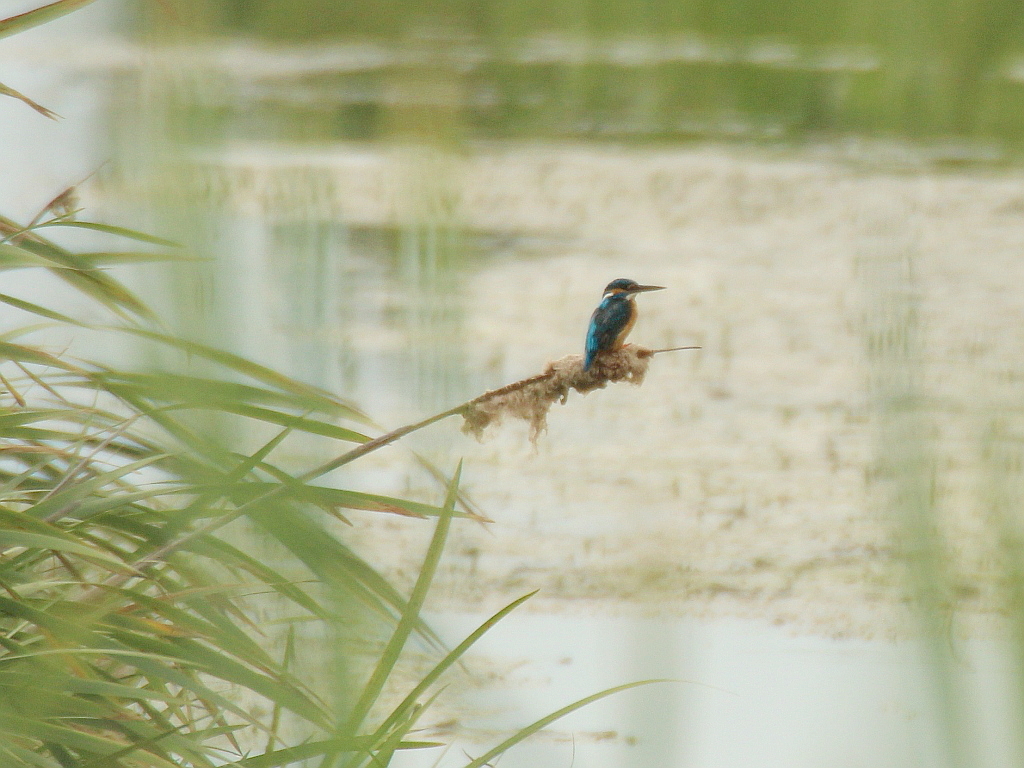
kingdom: Animalia
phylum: Chordata
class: Aves
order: Coraciiformes
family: Alcedinidae
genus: Alcedo
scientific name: Alcedo atthis
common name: Common kingfisher
